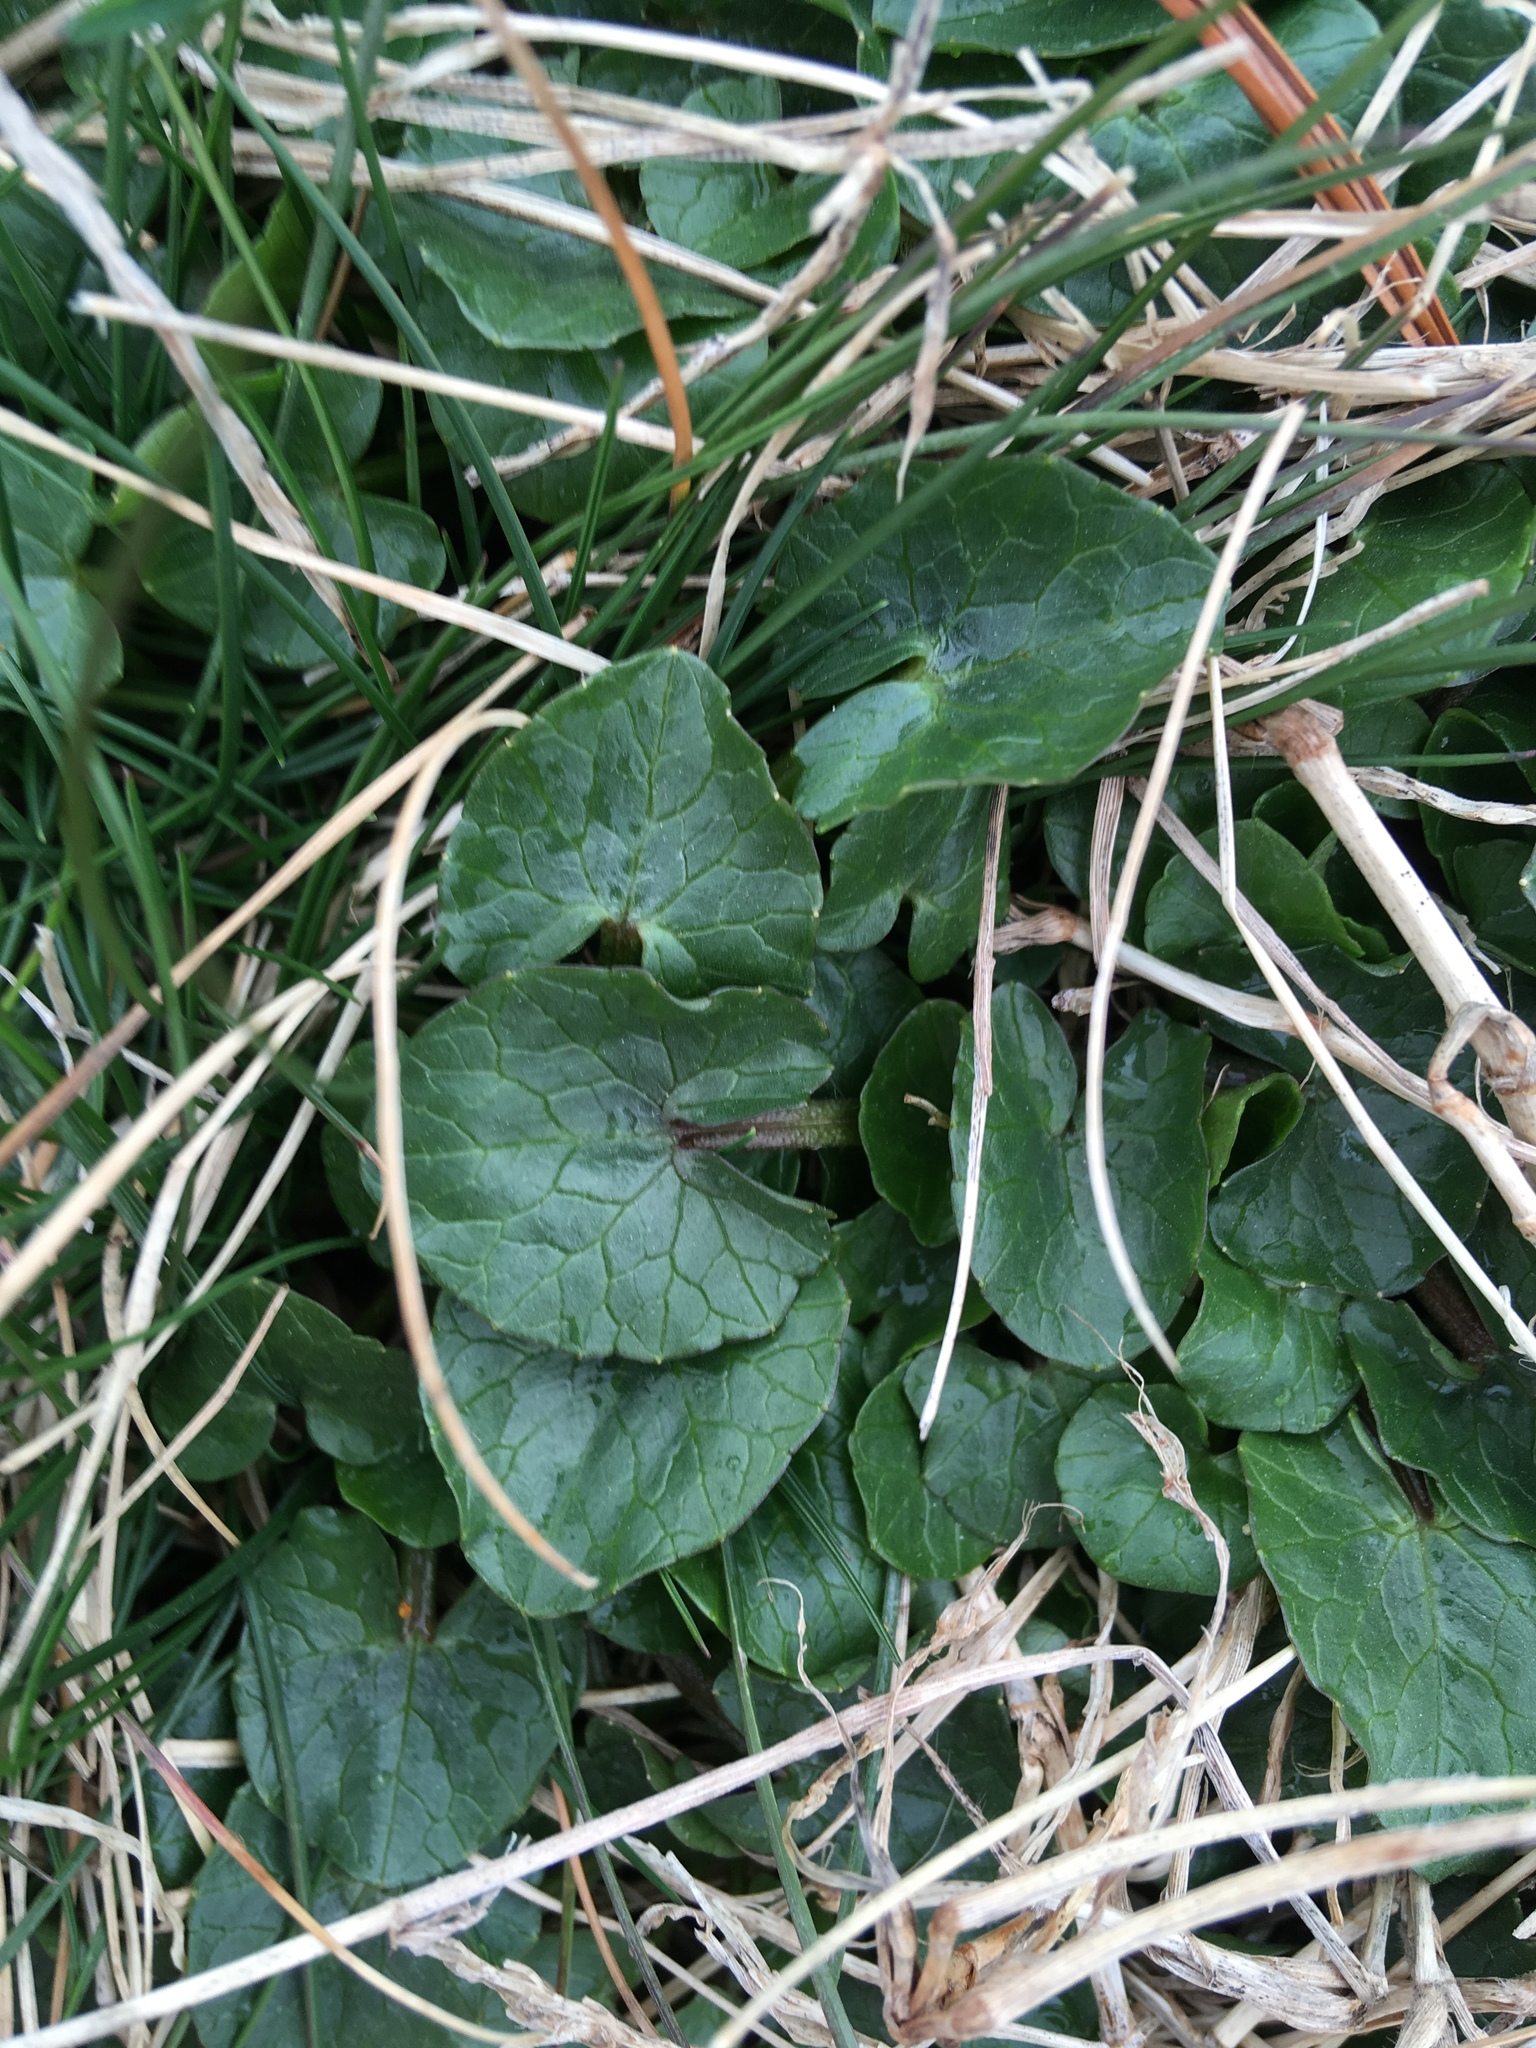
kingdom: Plantae
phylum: Tracheophyta
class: Magnoliopsida
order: Ranunculales
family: Ranunculaceae
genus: Ficaria
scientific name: Ficaria verna
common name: Lesser celandine
